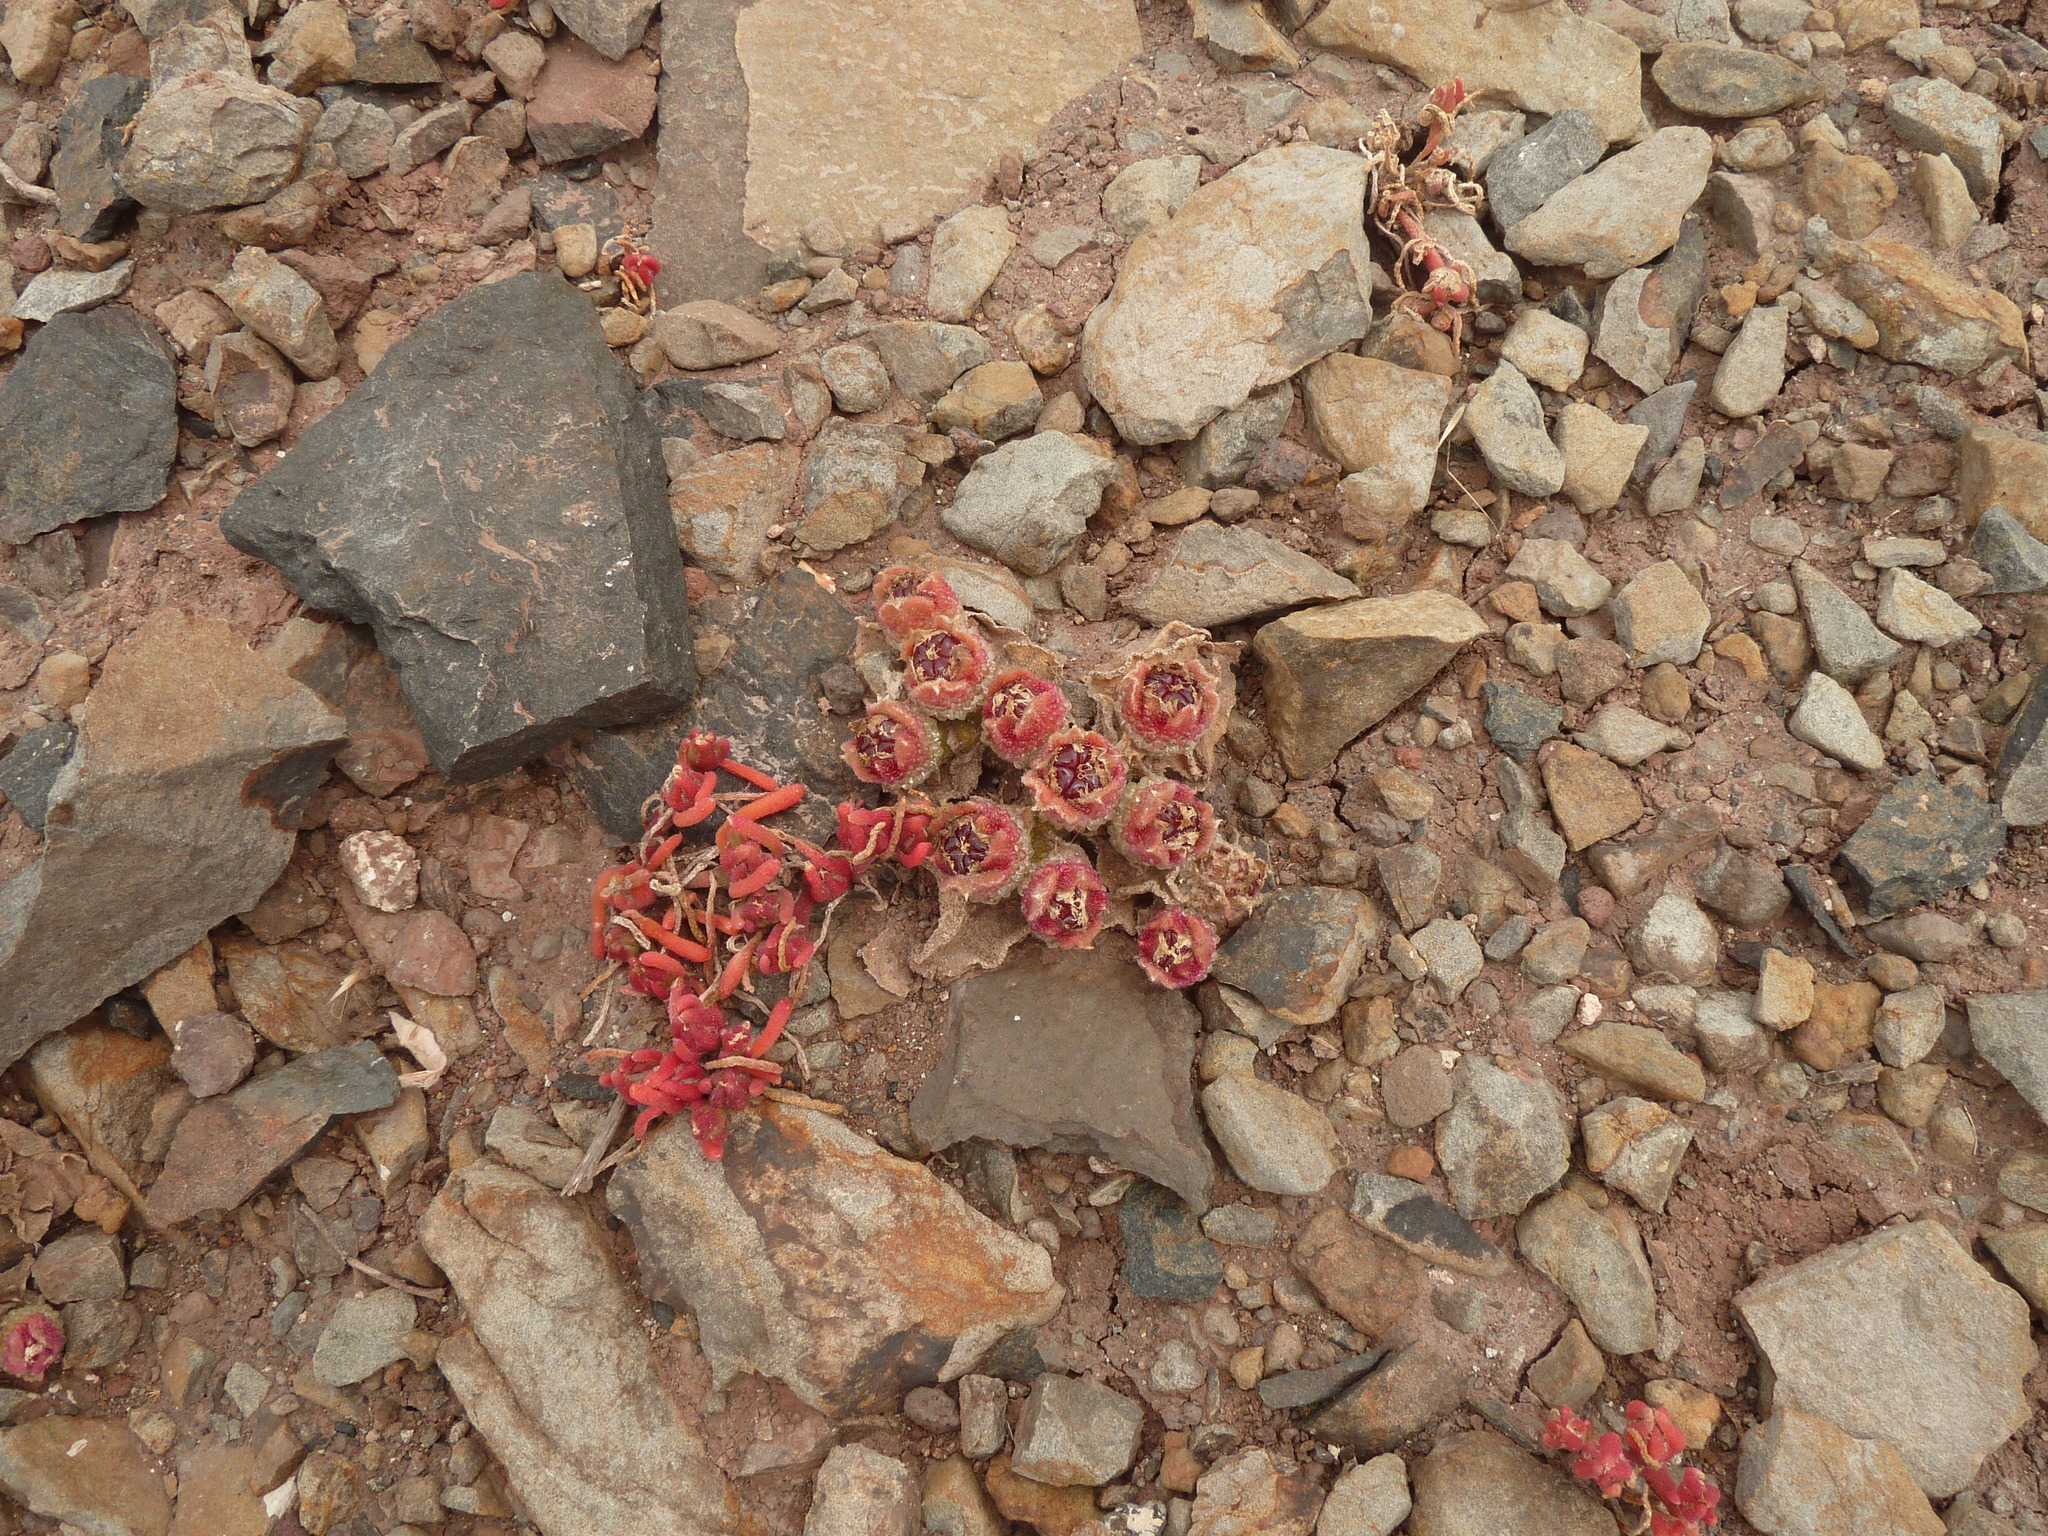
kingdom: Plantae
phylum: Tracheophyta
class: Magnoliopsida
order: Caryophyllales
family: Aizoaceae
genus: Mesembryanthemum
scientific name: Mesembryanthemum crystallinum
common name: Common iceplant
